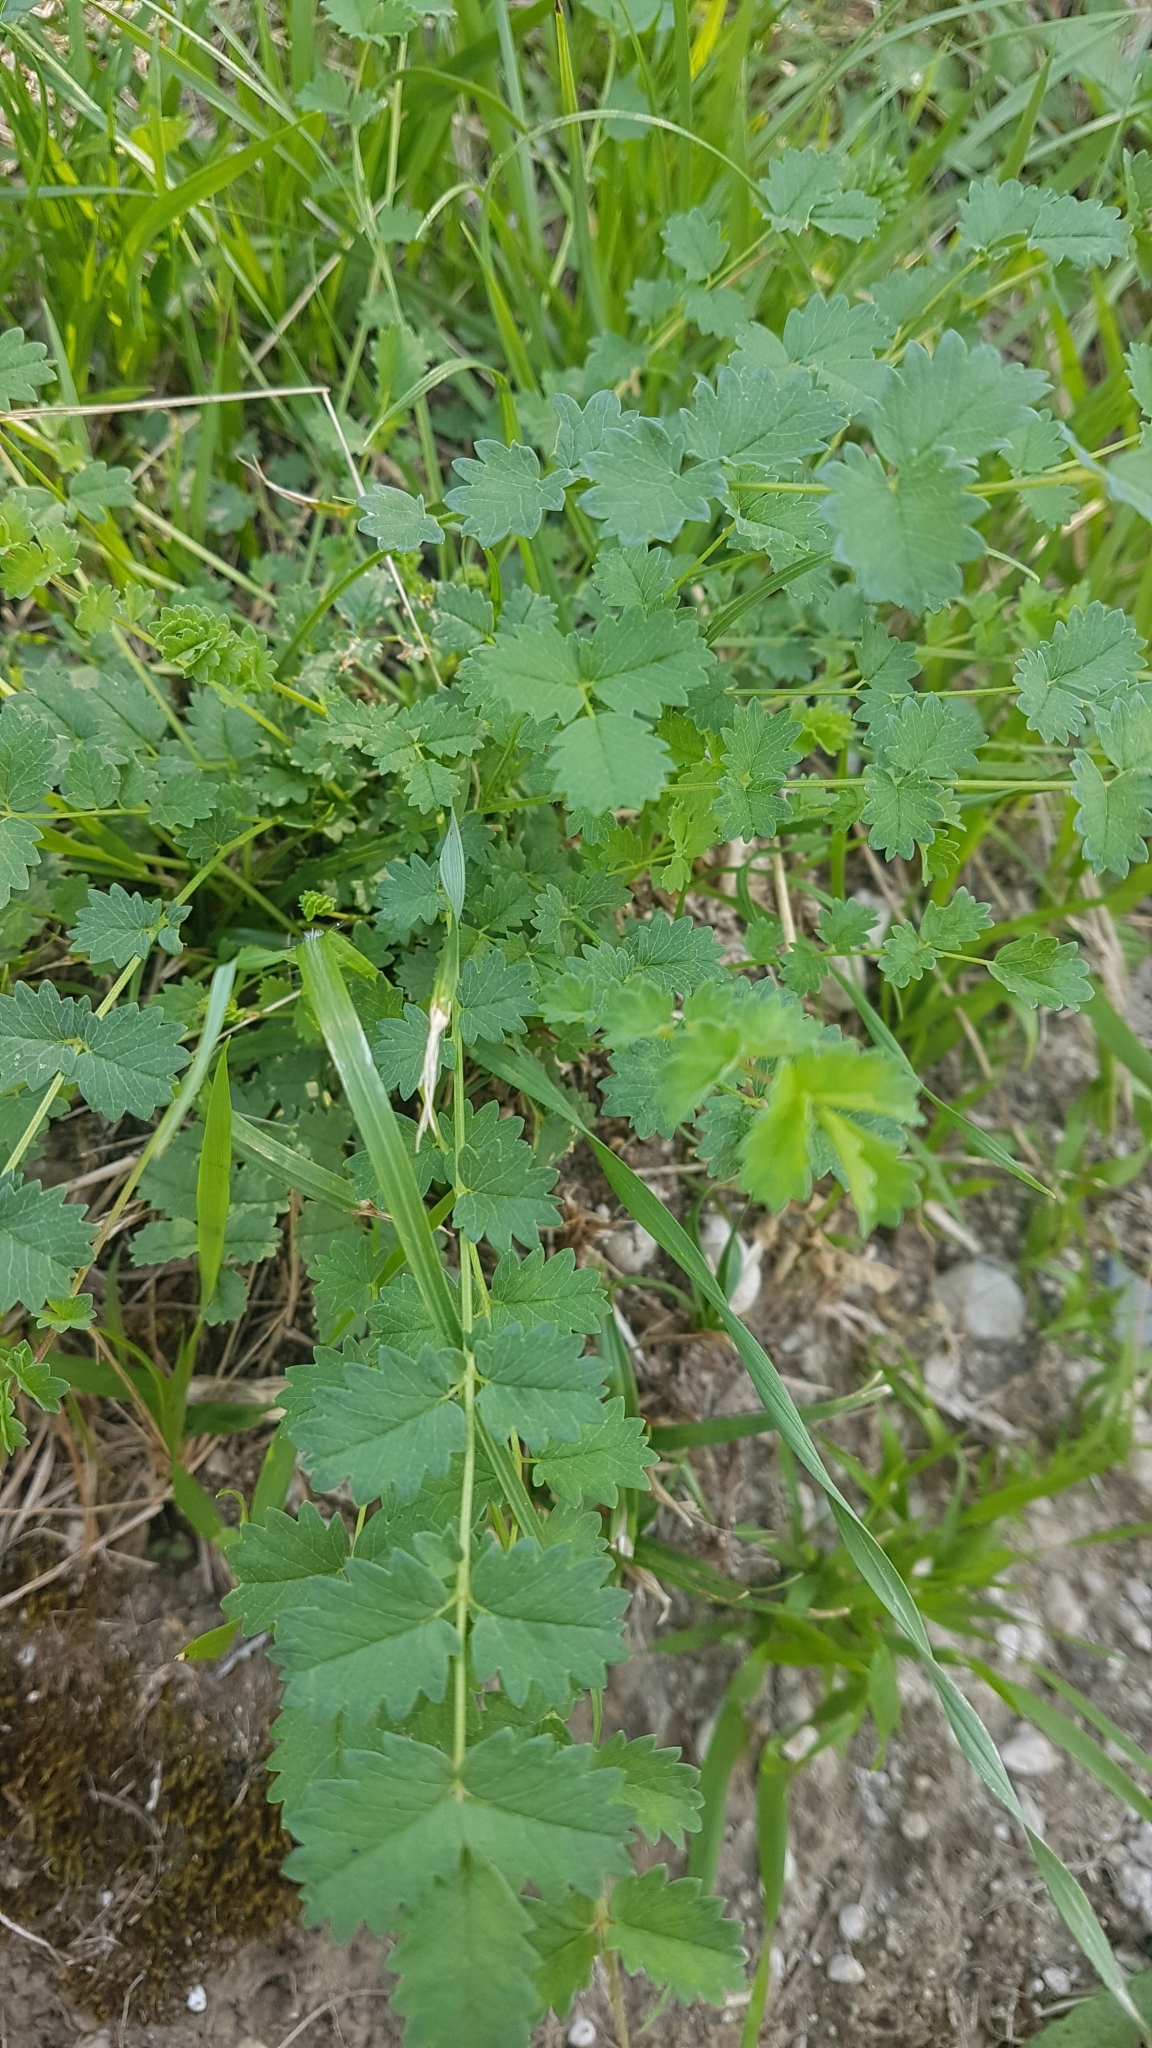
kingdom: Plantae
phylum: Tracheophyta
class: Magnoliopsida
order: Rosales
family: Rosaceae
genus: Poterium
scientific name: Poterium sanguisorba
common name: Salad burnet
